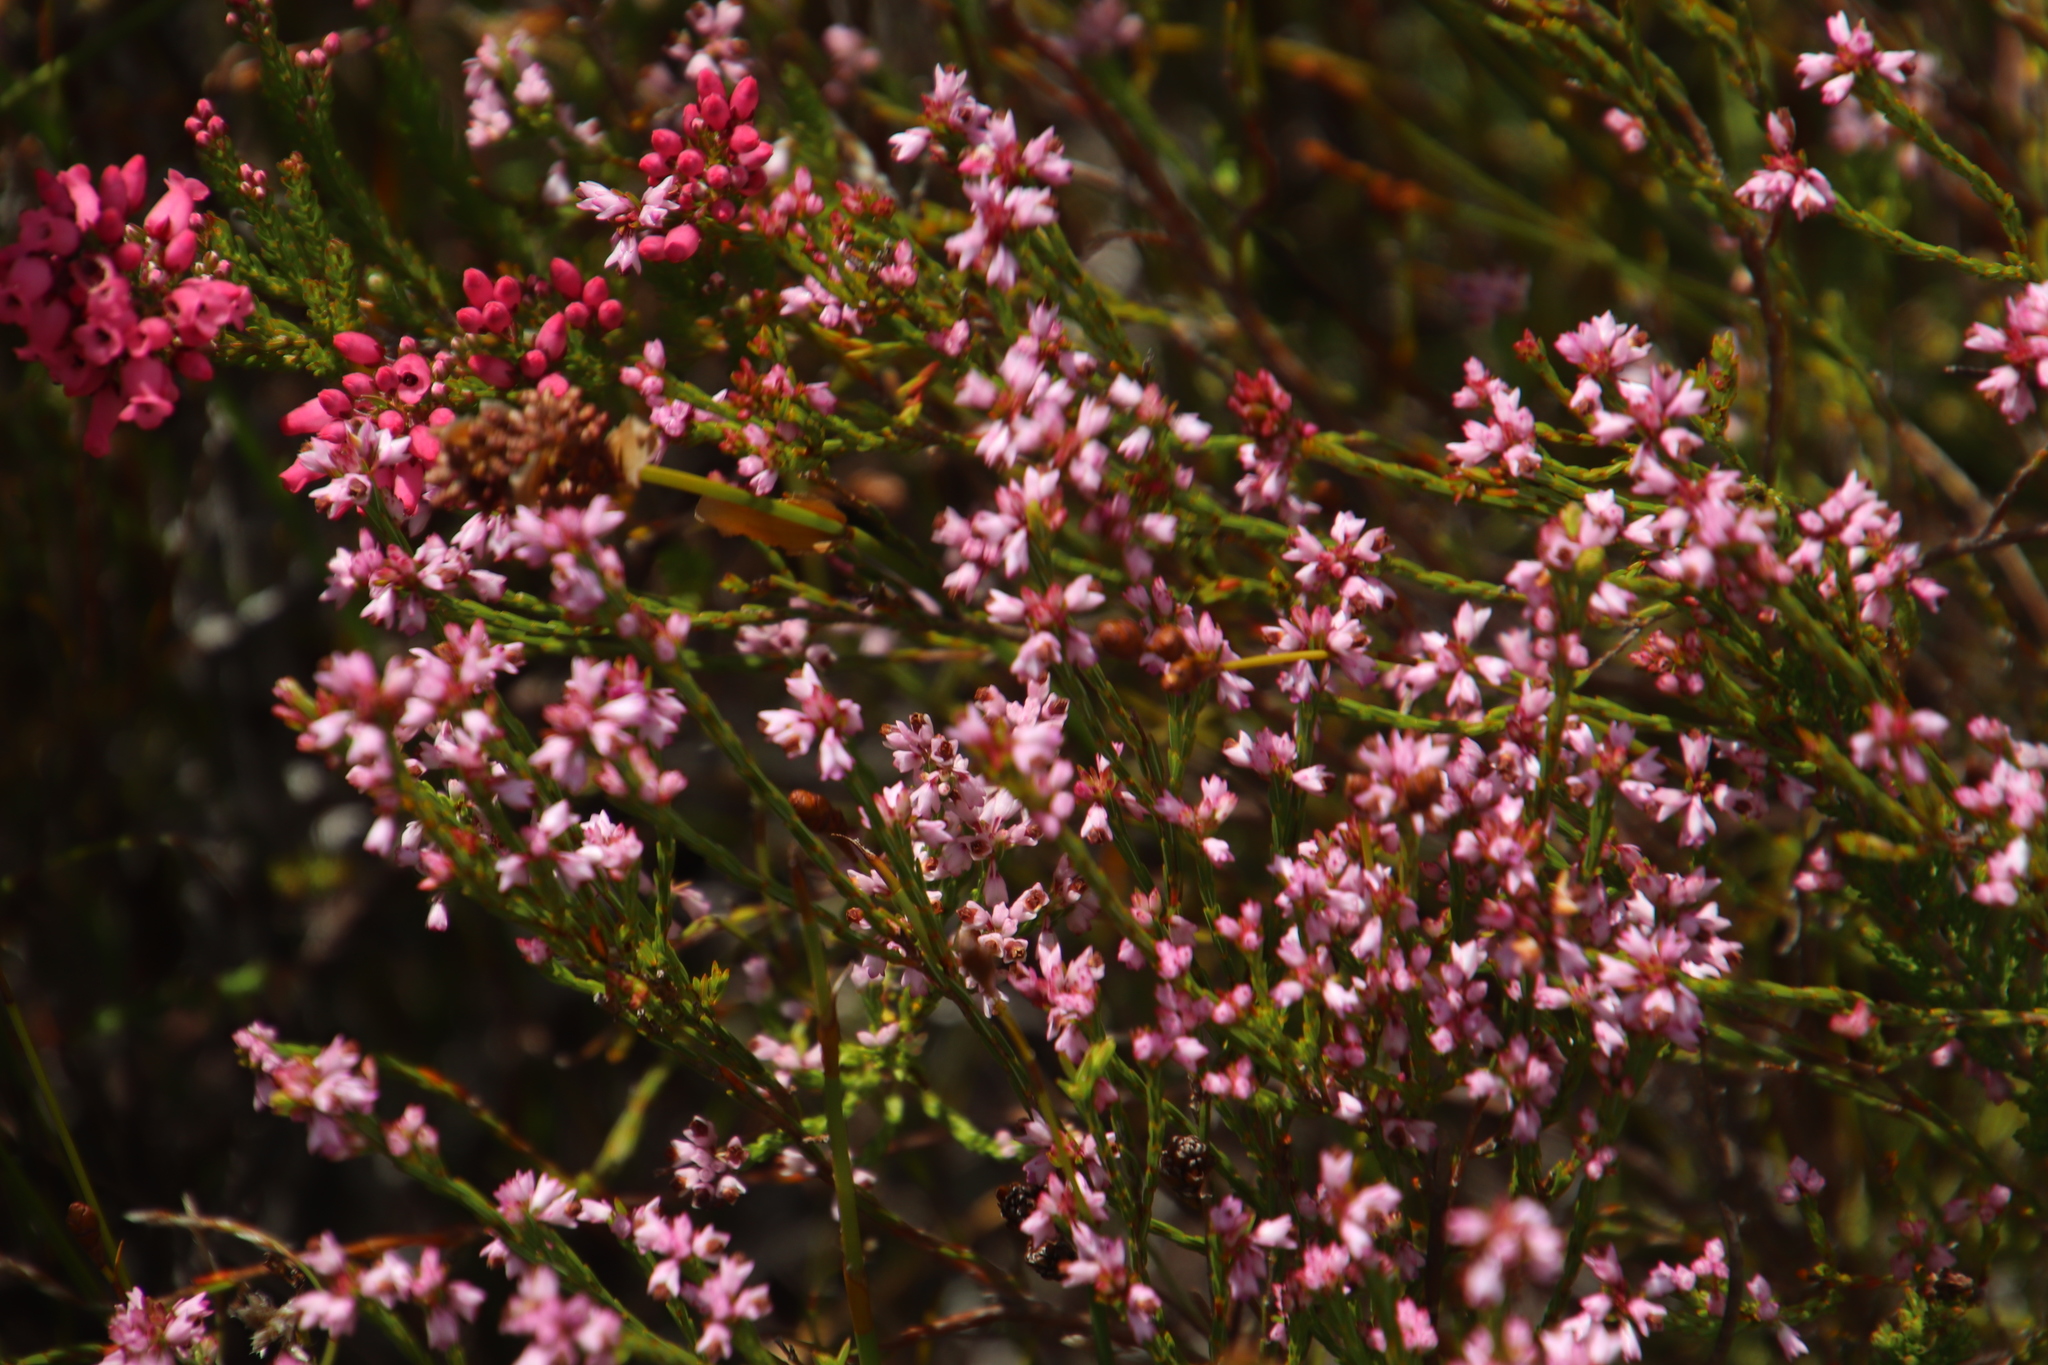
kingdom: Plantae
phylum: Tracheophyta
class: Magnoliopsida
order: Ericales
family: Ericaceae
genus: Erica
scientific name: Erica corifolia
